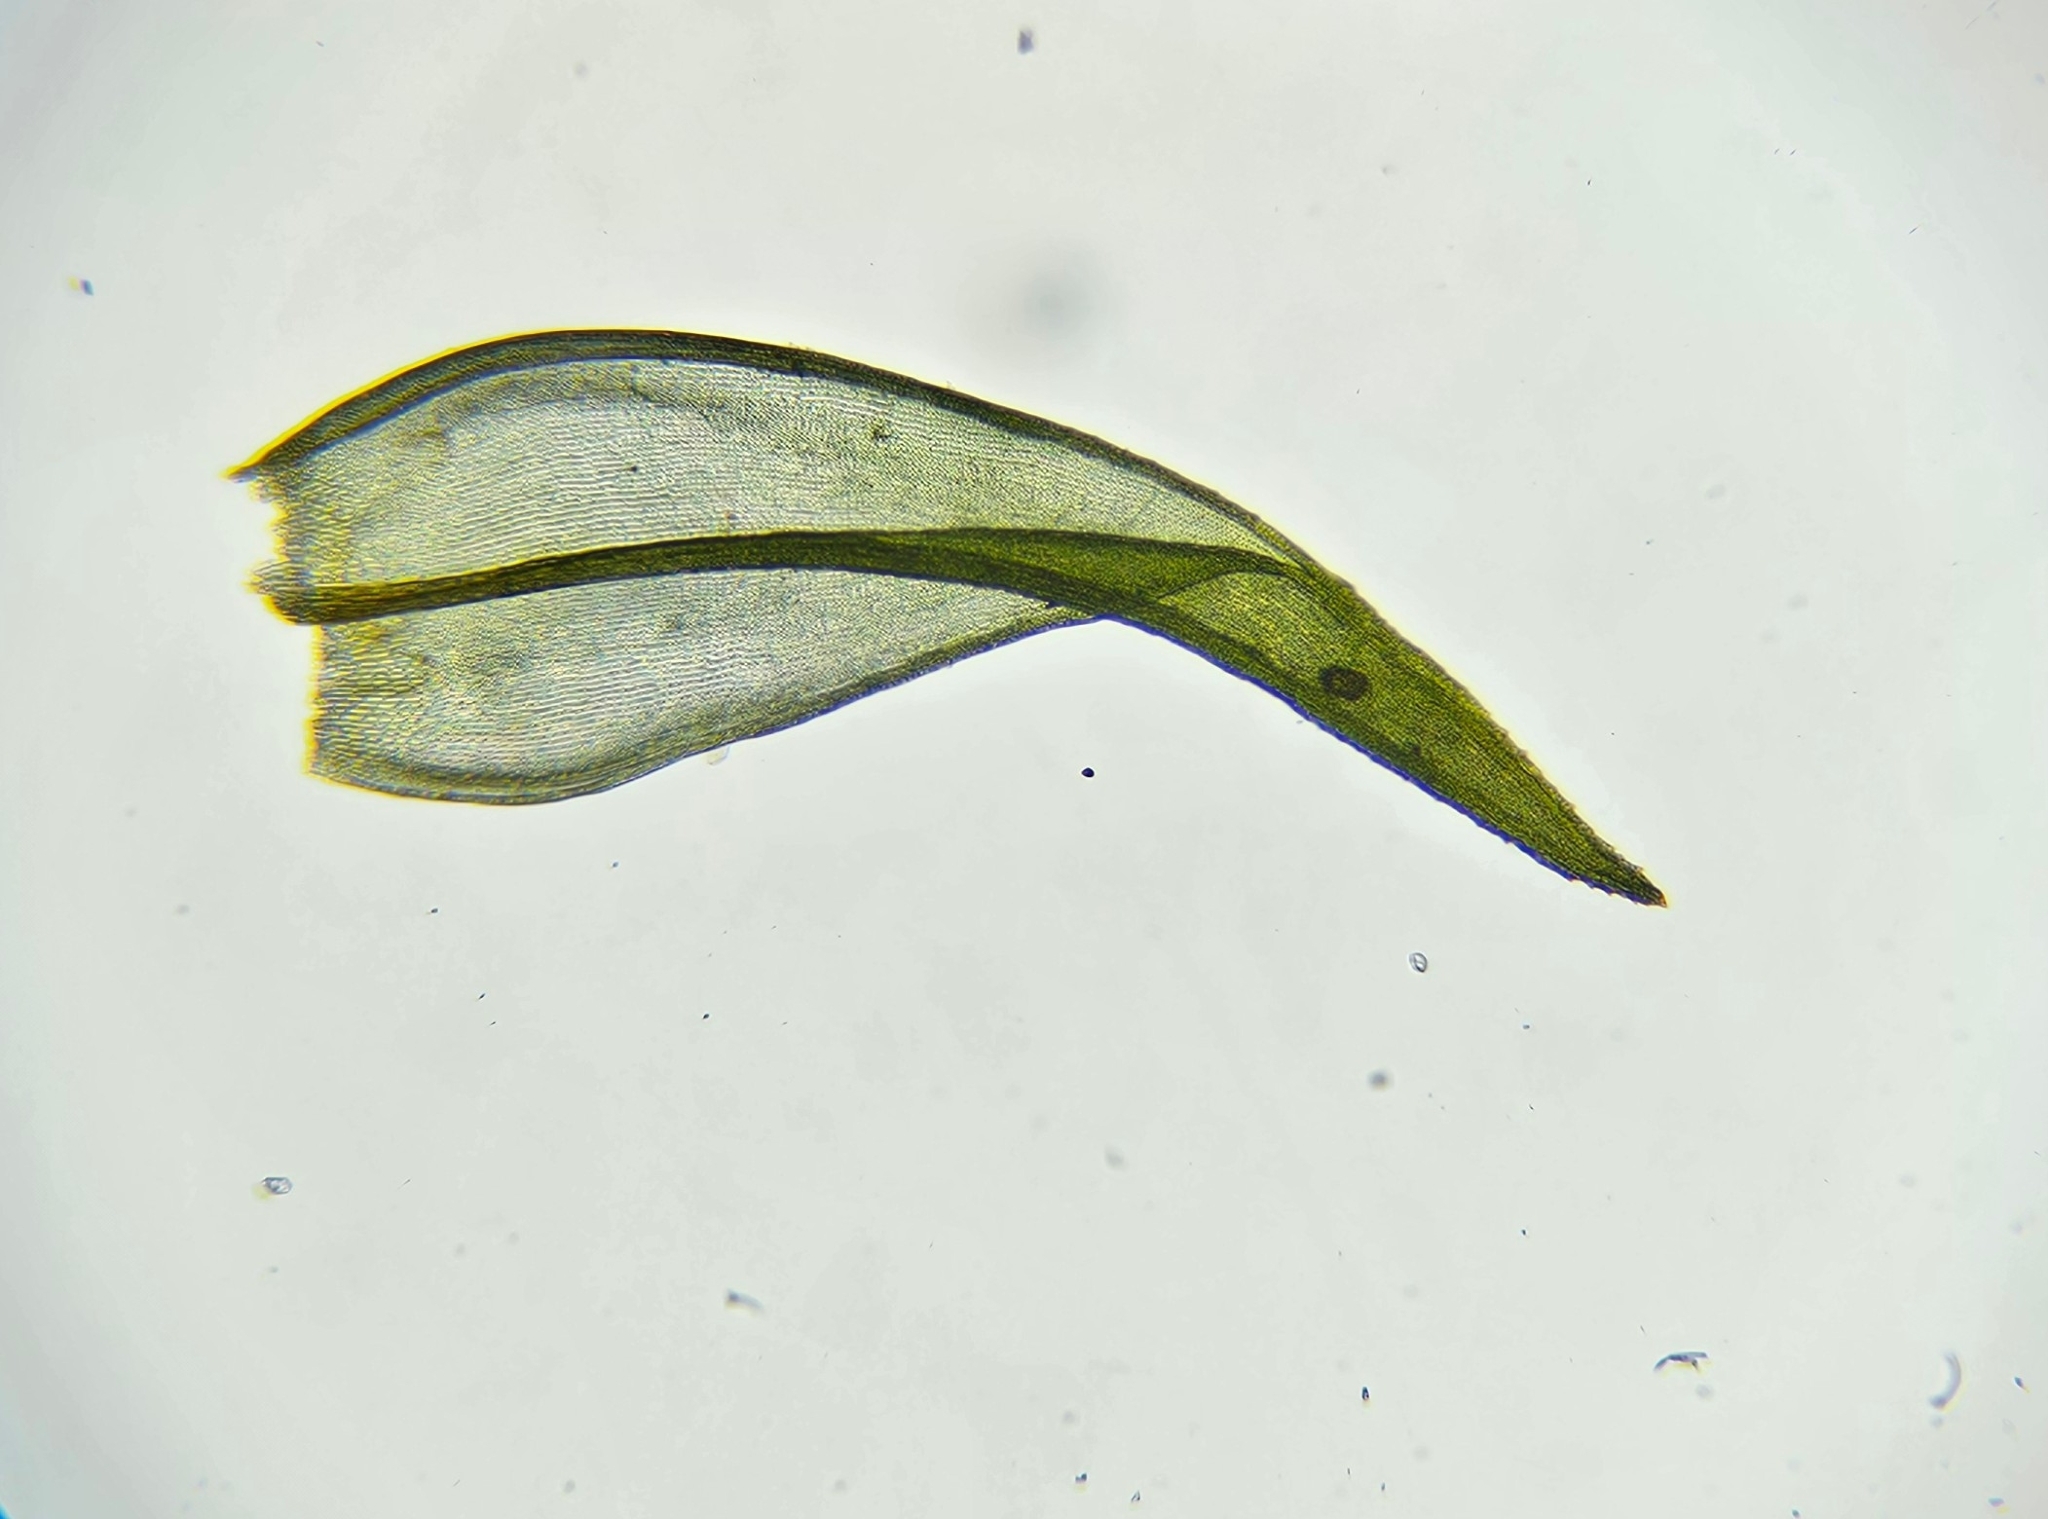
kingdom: Plantae
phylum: Bryophyta
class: Bryopsida
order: Grimmiales
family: Grimmiaceae
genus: Schistidium
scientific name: Schistidium apocarpum
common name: Radiate bloom moss
